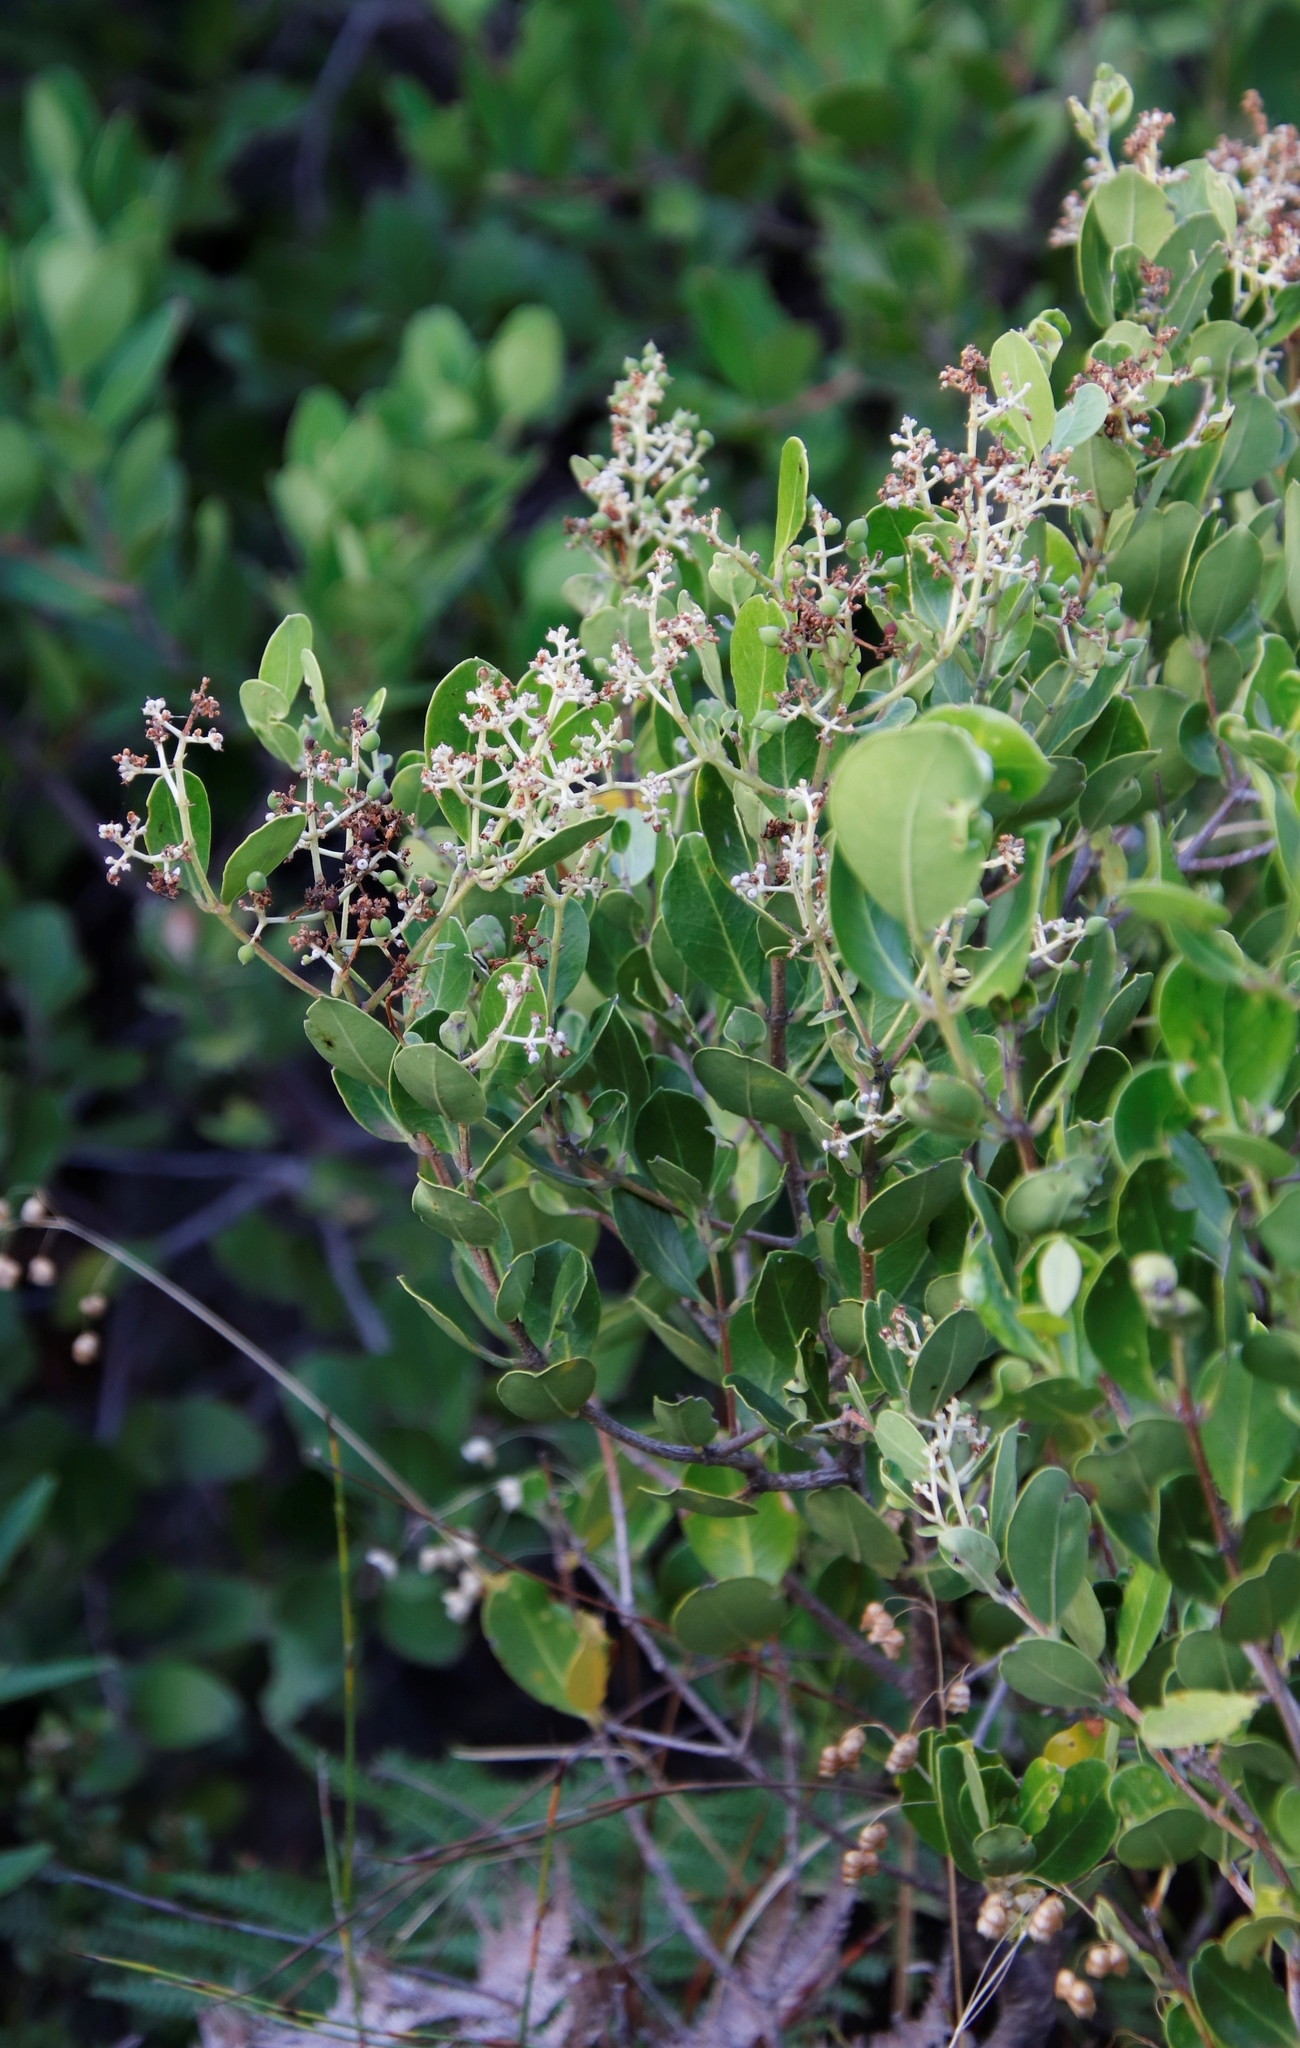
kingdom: Plantae
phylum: Tracheophyta
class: Magnoliopsida
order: Lamiales
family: Oleaceae
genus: Olea
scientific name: Olea capensis
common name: Black ironwood
